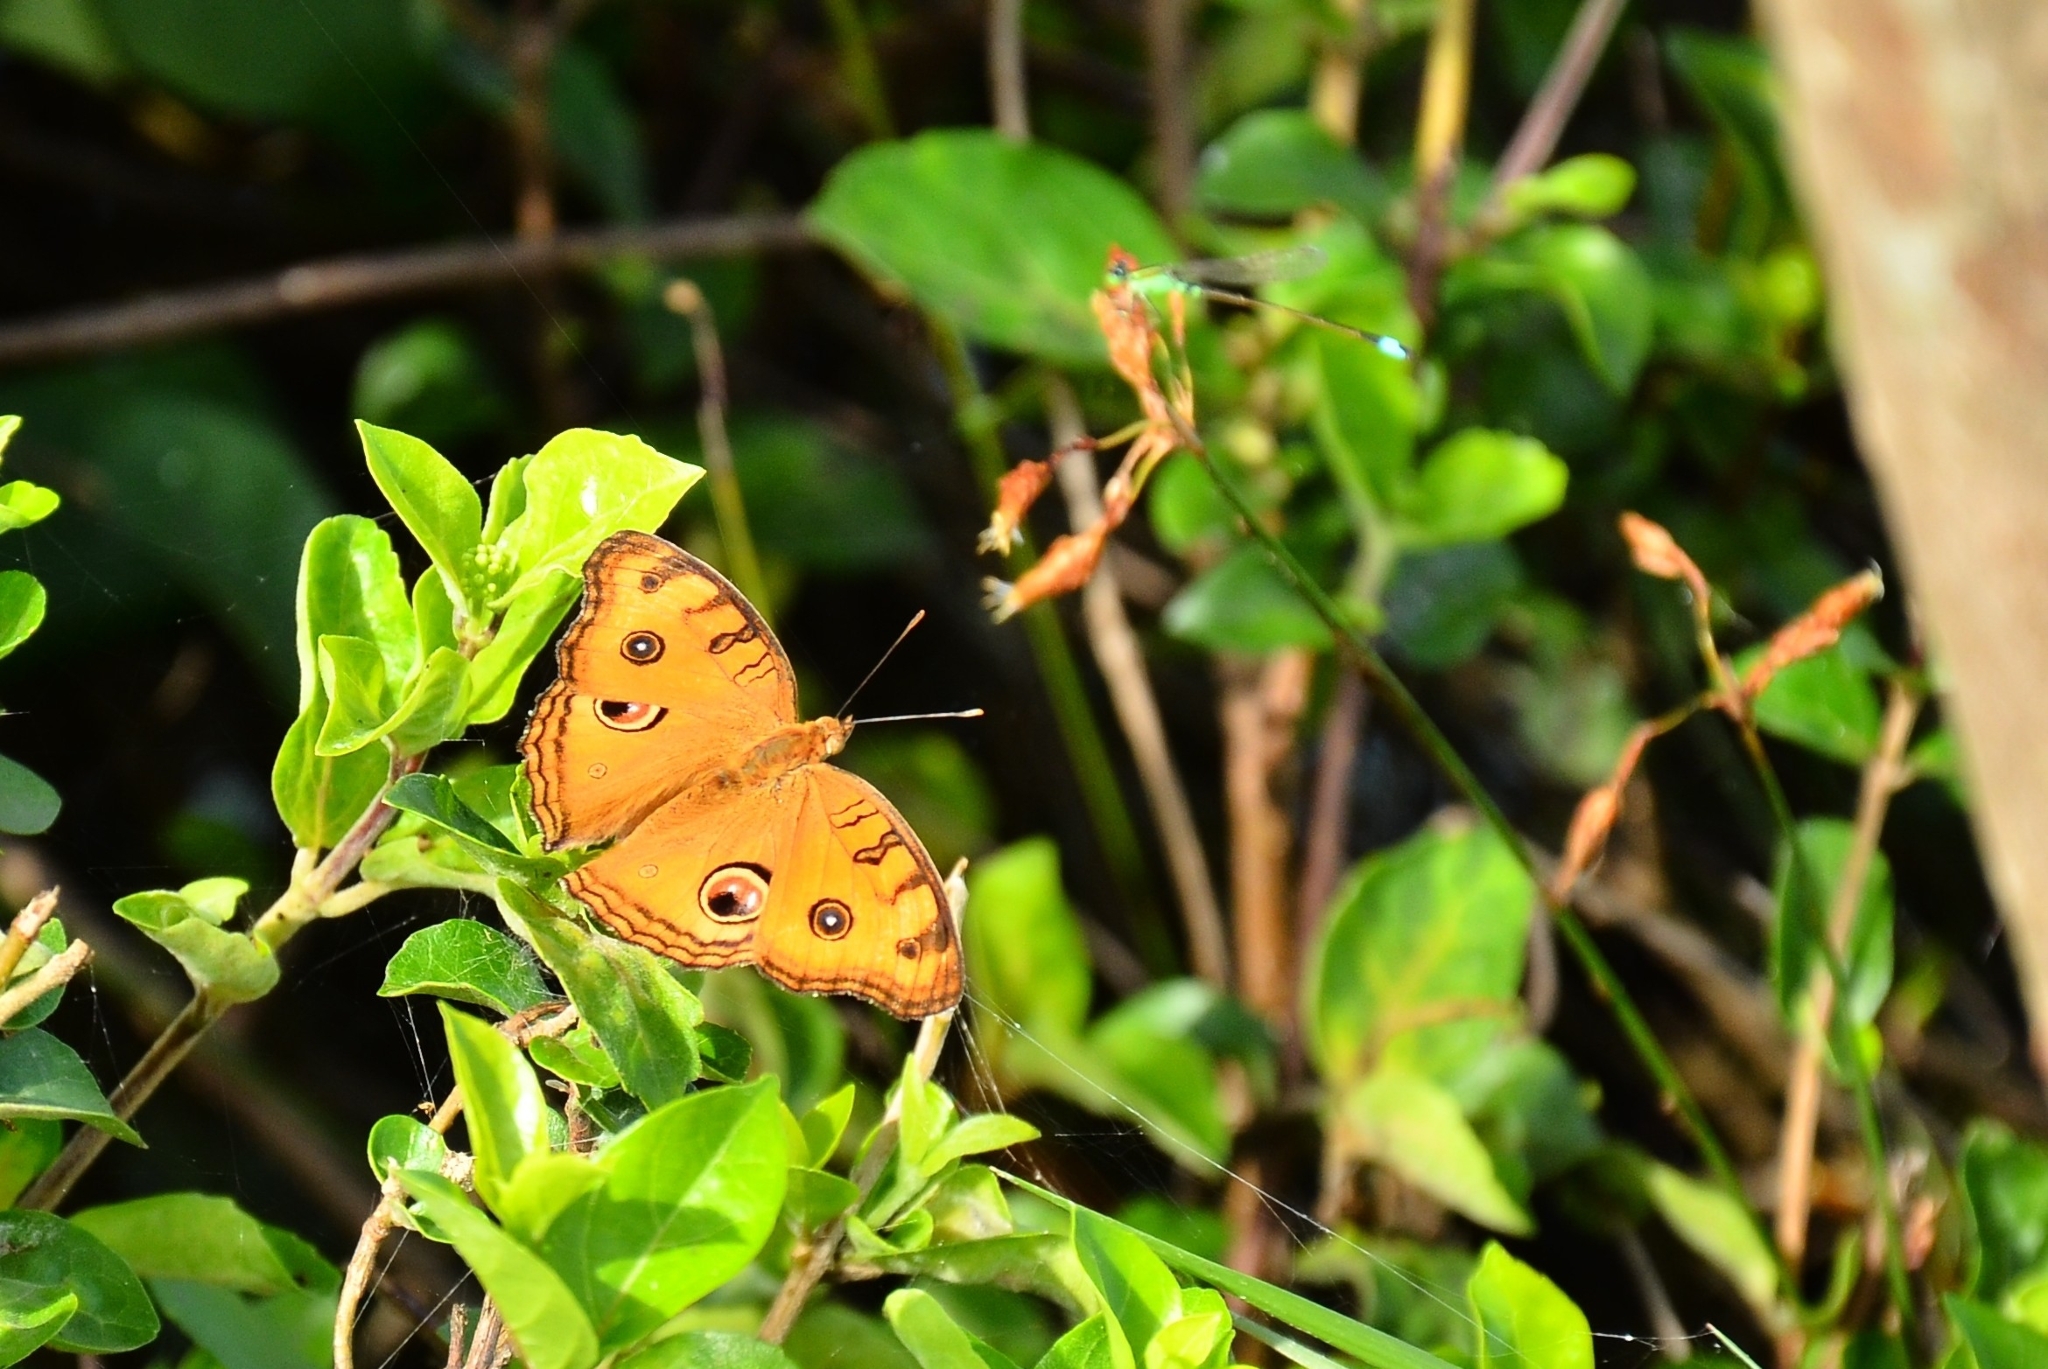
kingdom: Animalia
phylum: Arthropoda
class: Insecta
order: Lepidoptera
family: Nymphalidae
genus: Junonia
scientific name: Junonia almana
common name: Peacock pansy
